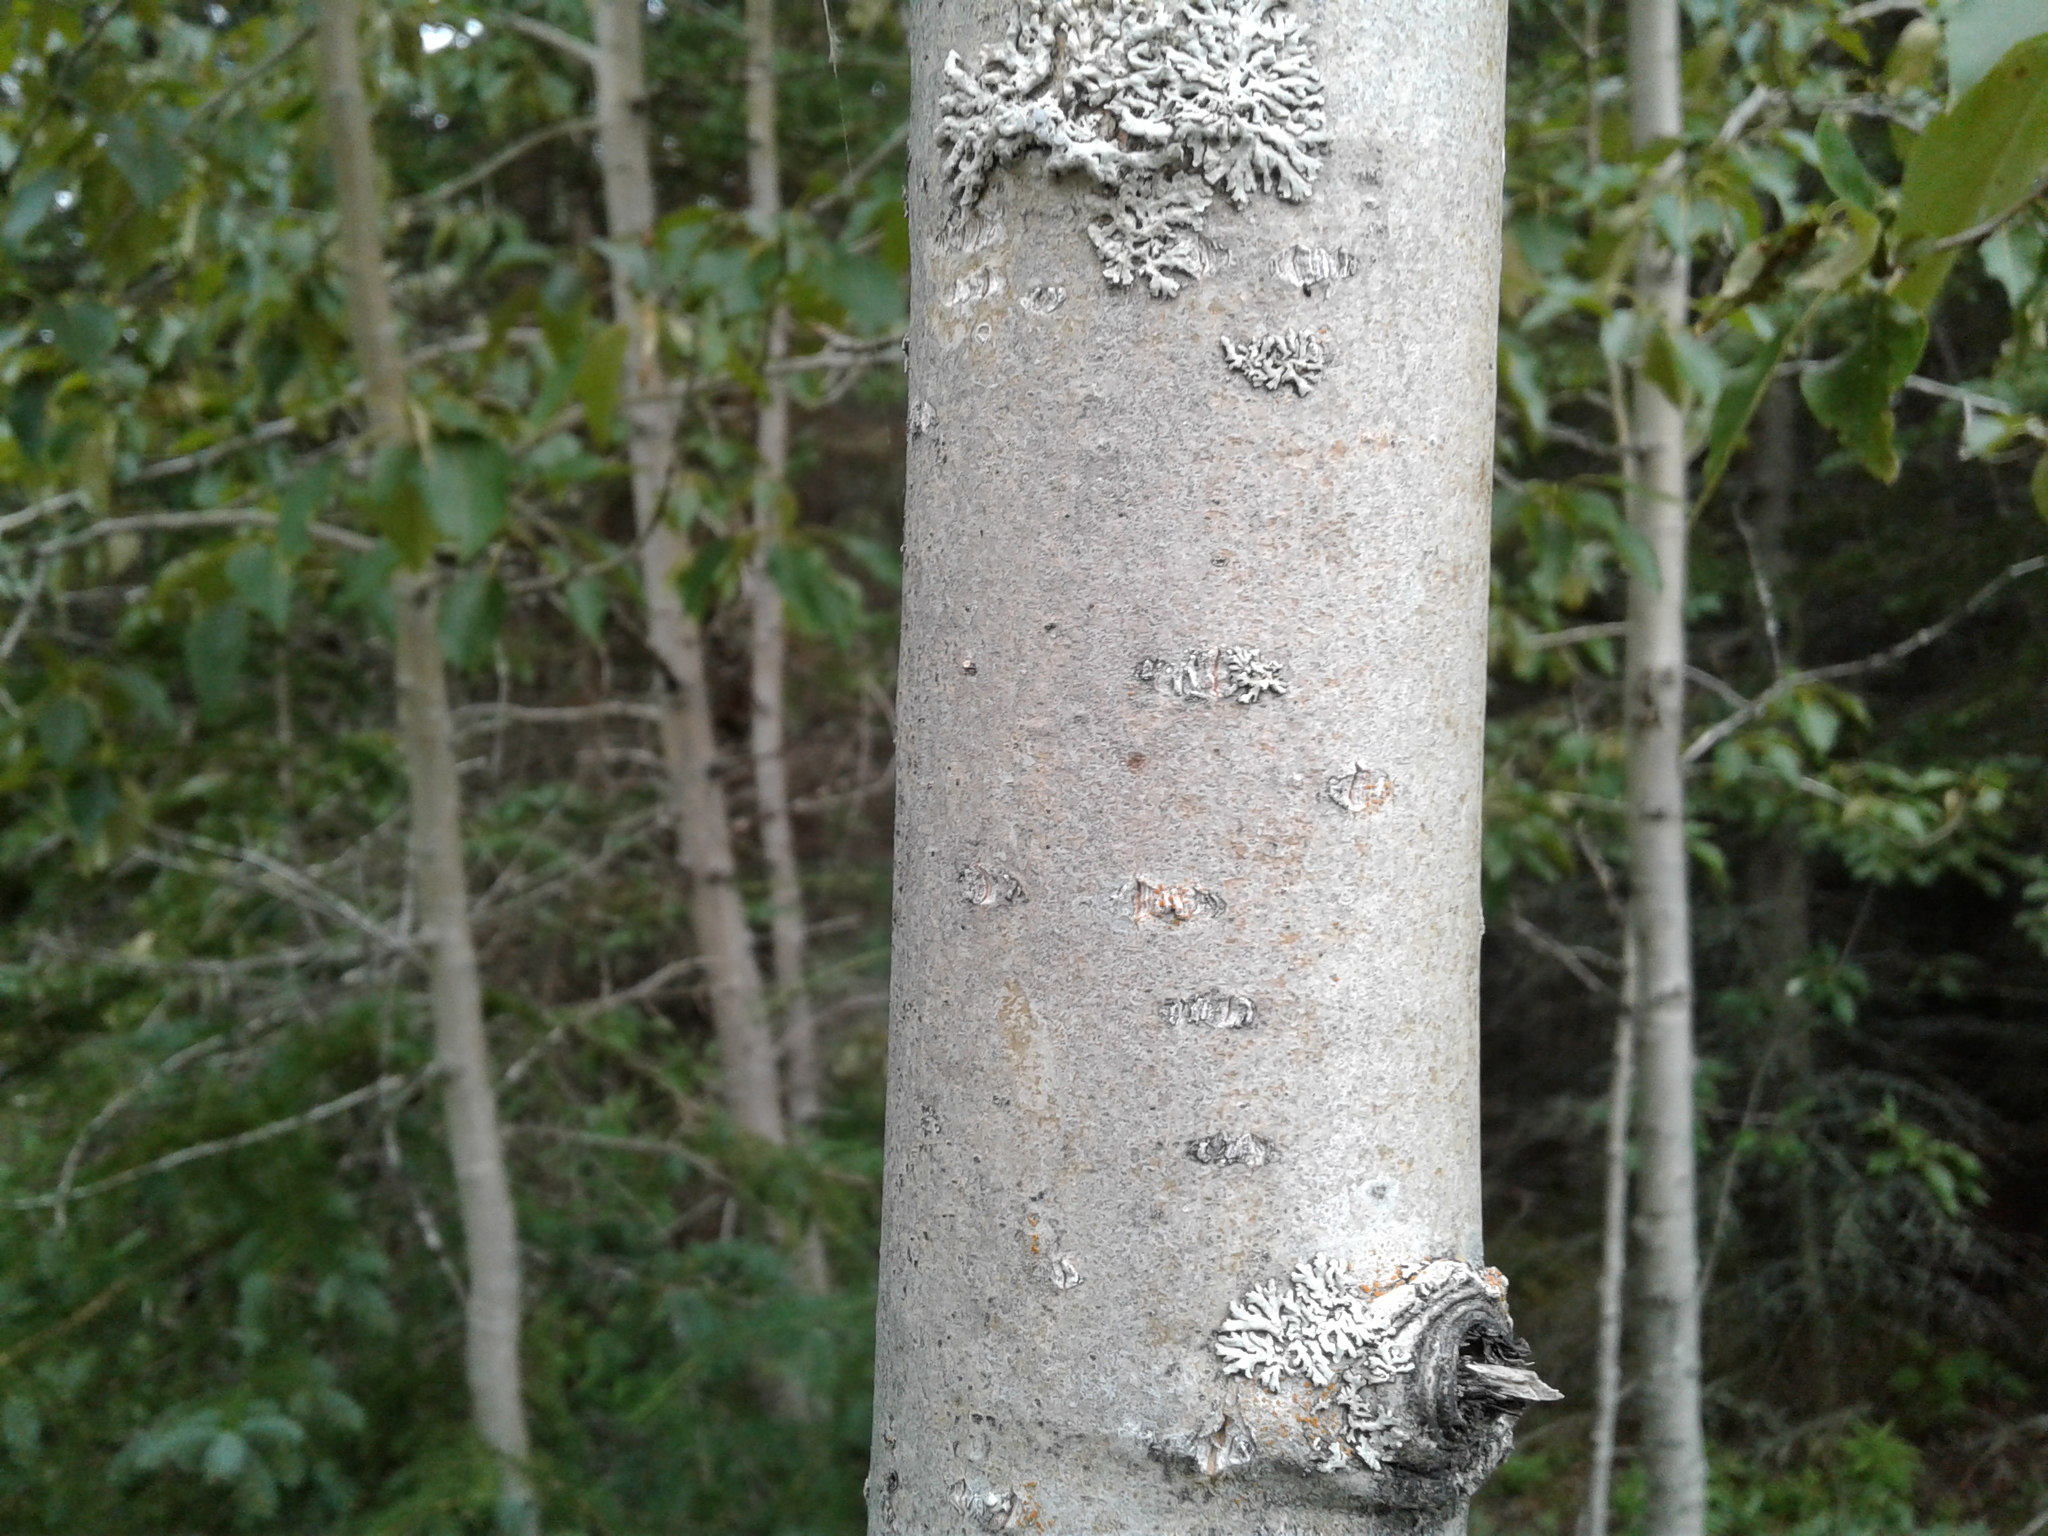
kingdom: Plantae
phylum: Tracheophyta
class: Magnoliopsida
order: Malpighiales
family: Salicaceae
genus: Populus
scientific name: Populus balsamifera
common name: Balsam poplar
